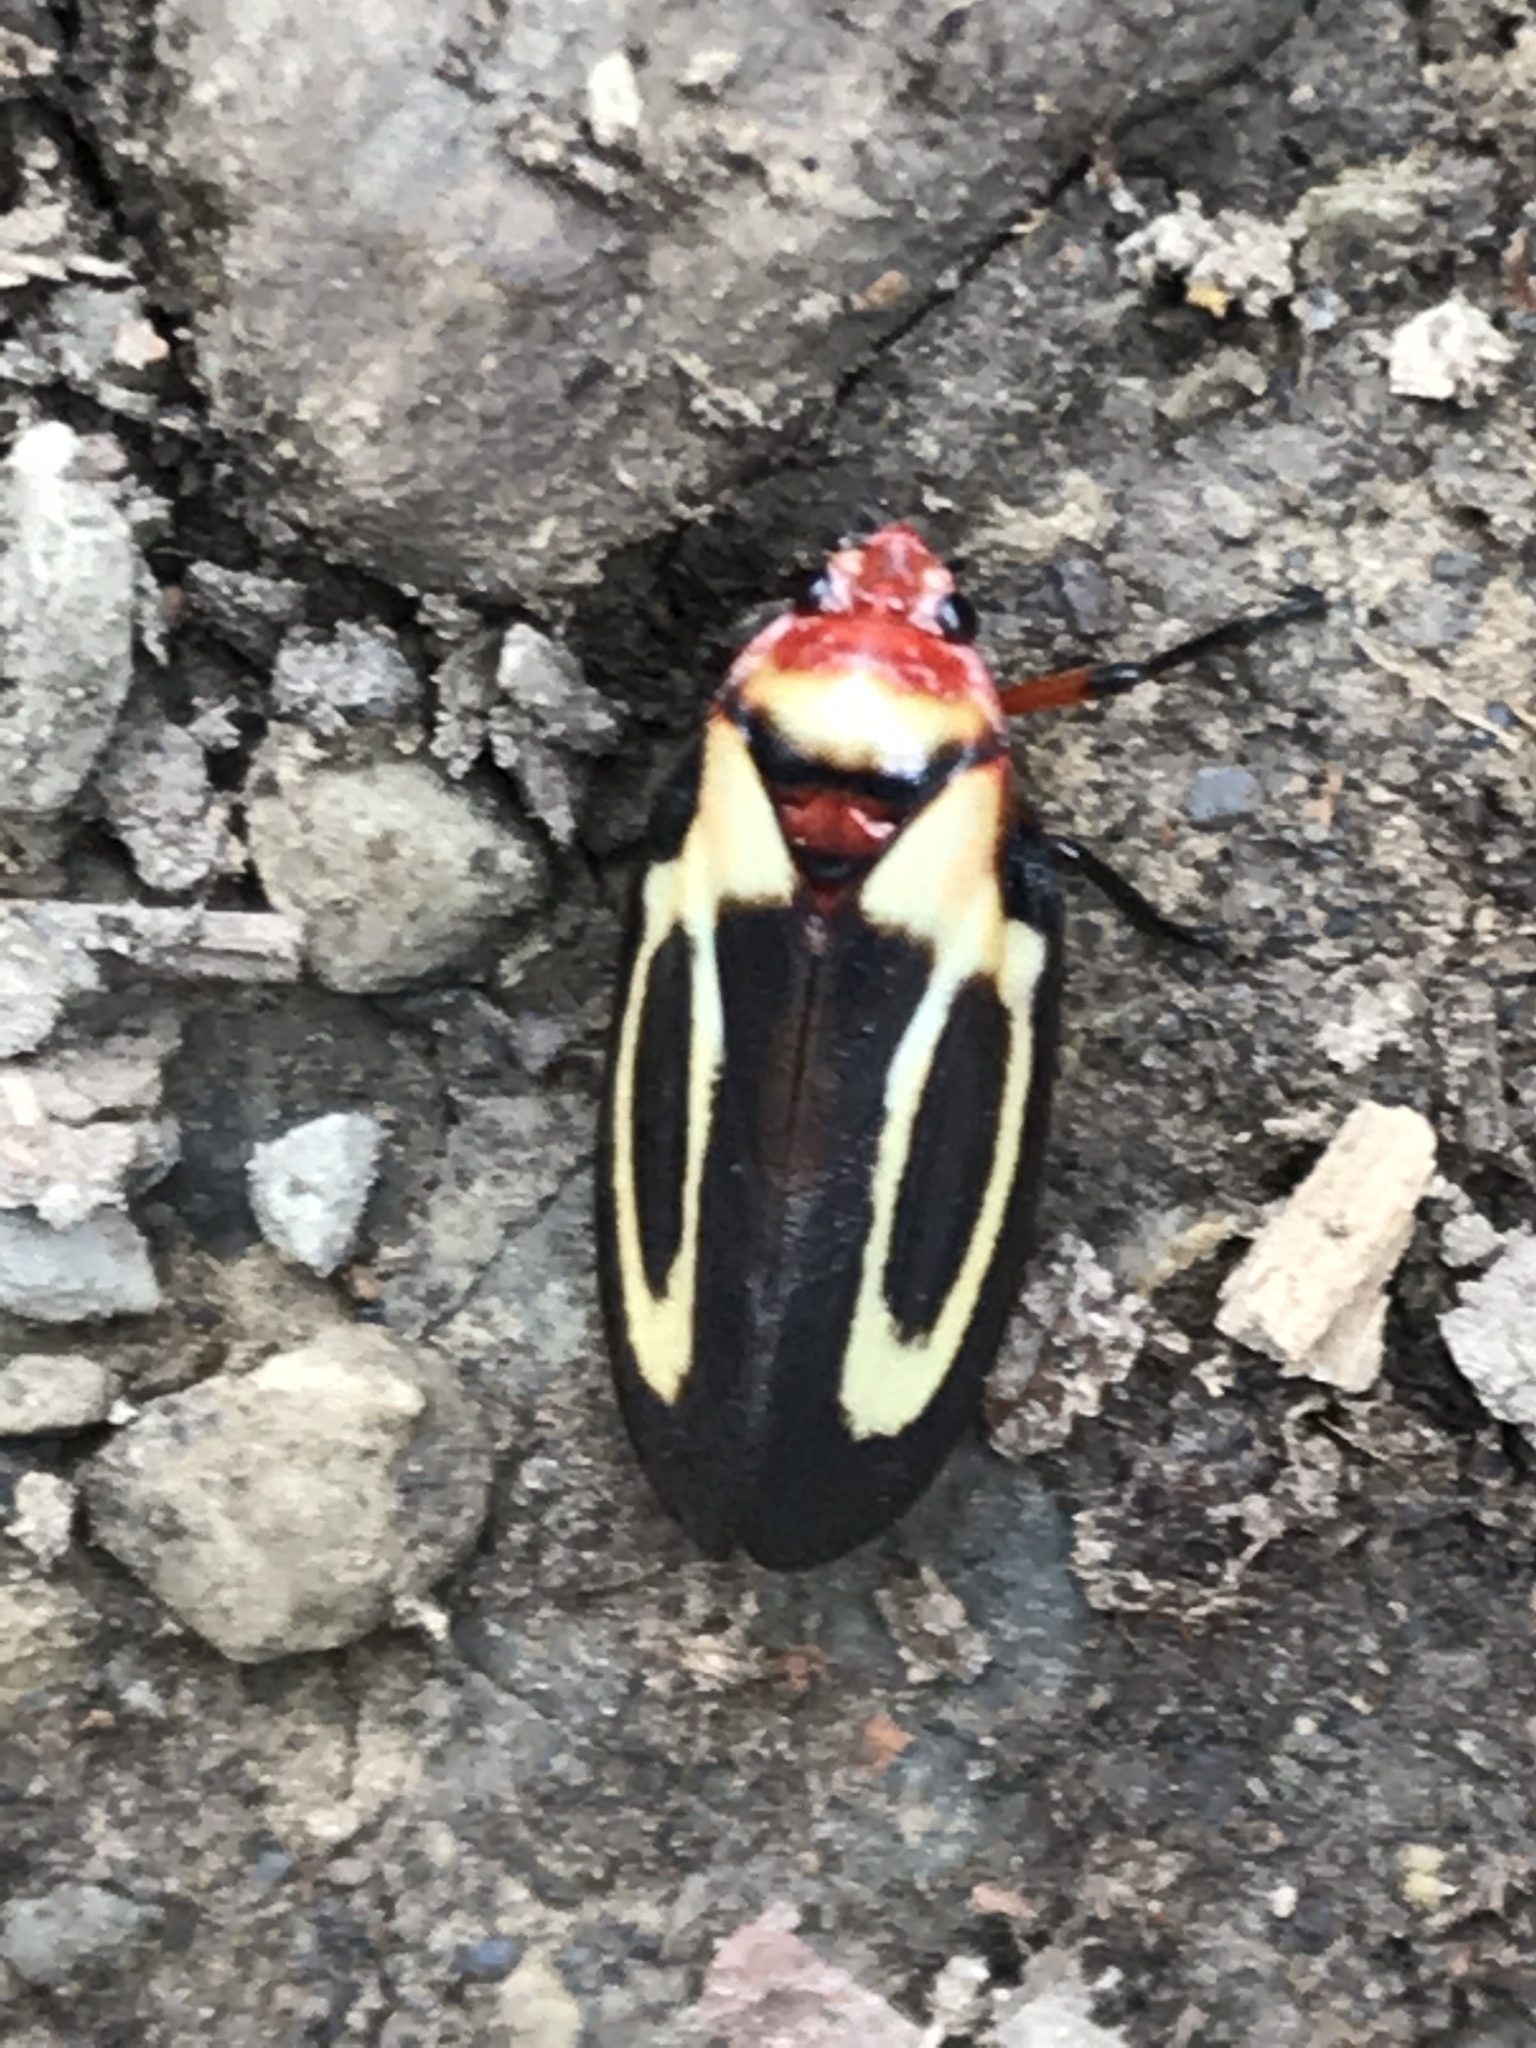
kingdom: Animalia
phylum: Arthropoda
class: Insecta
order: Hemiptera
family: Cercopidae
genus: Ocoaxo
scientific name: Ocoaxo
